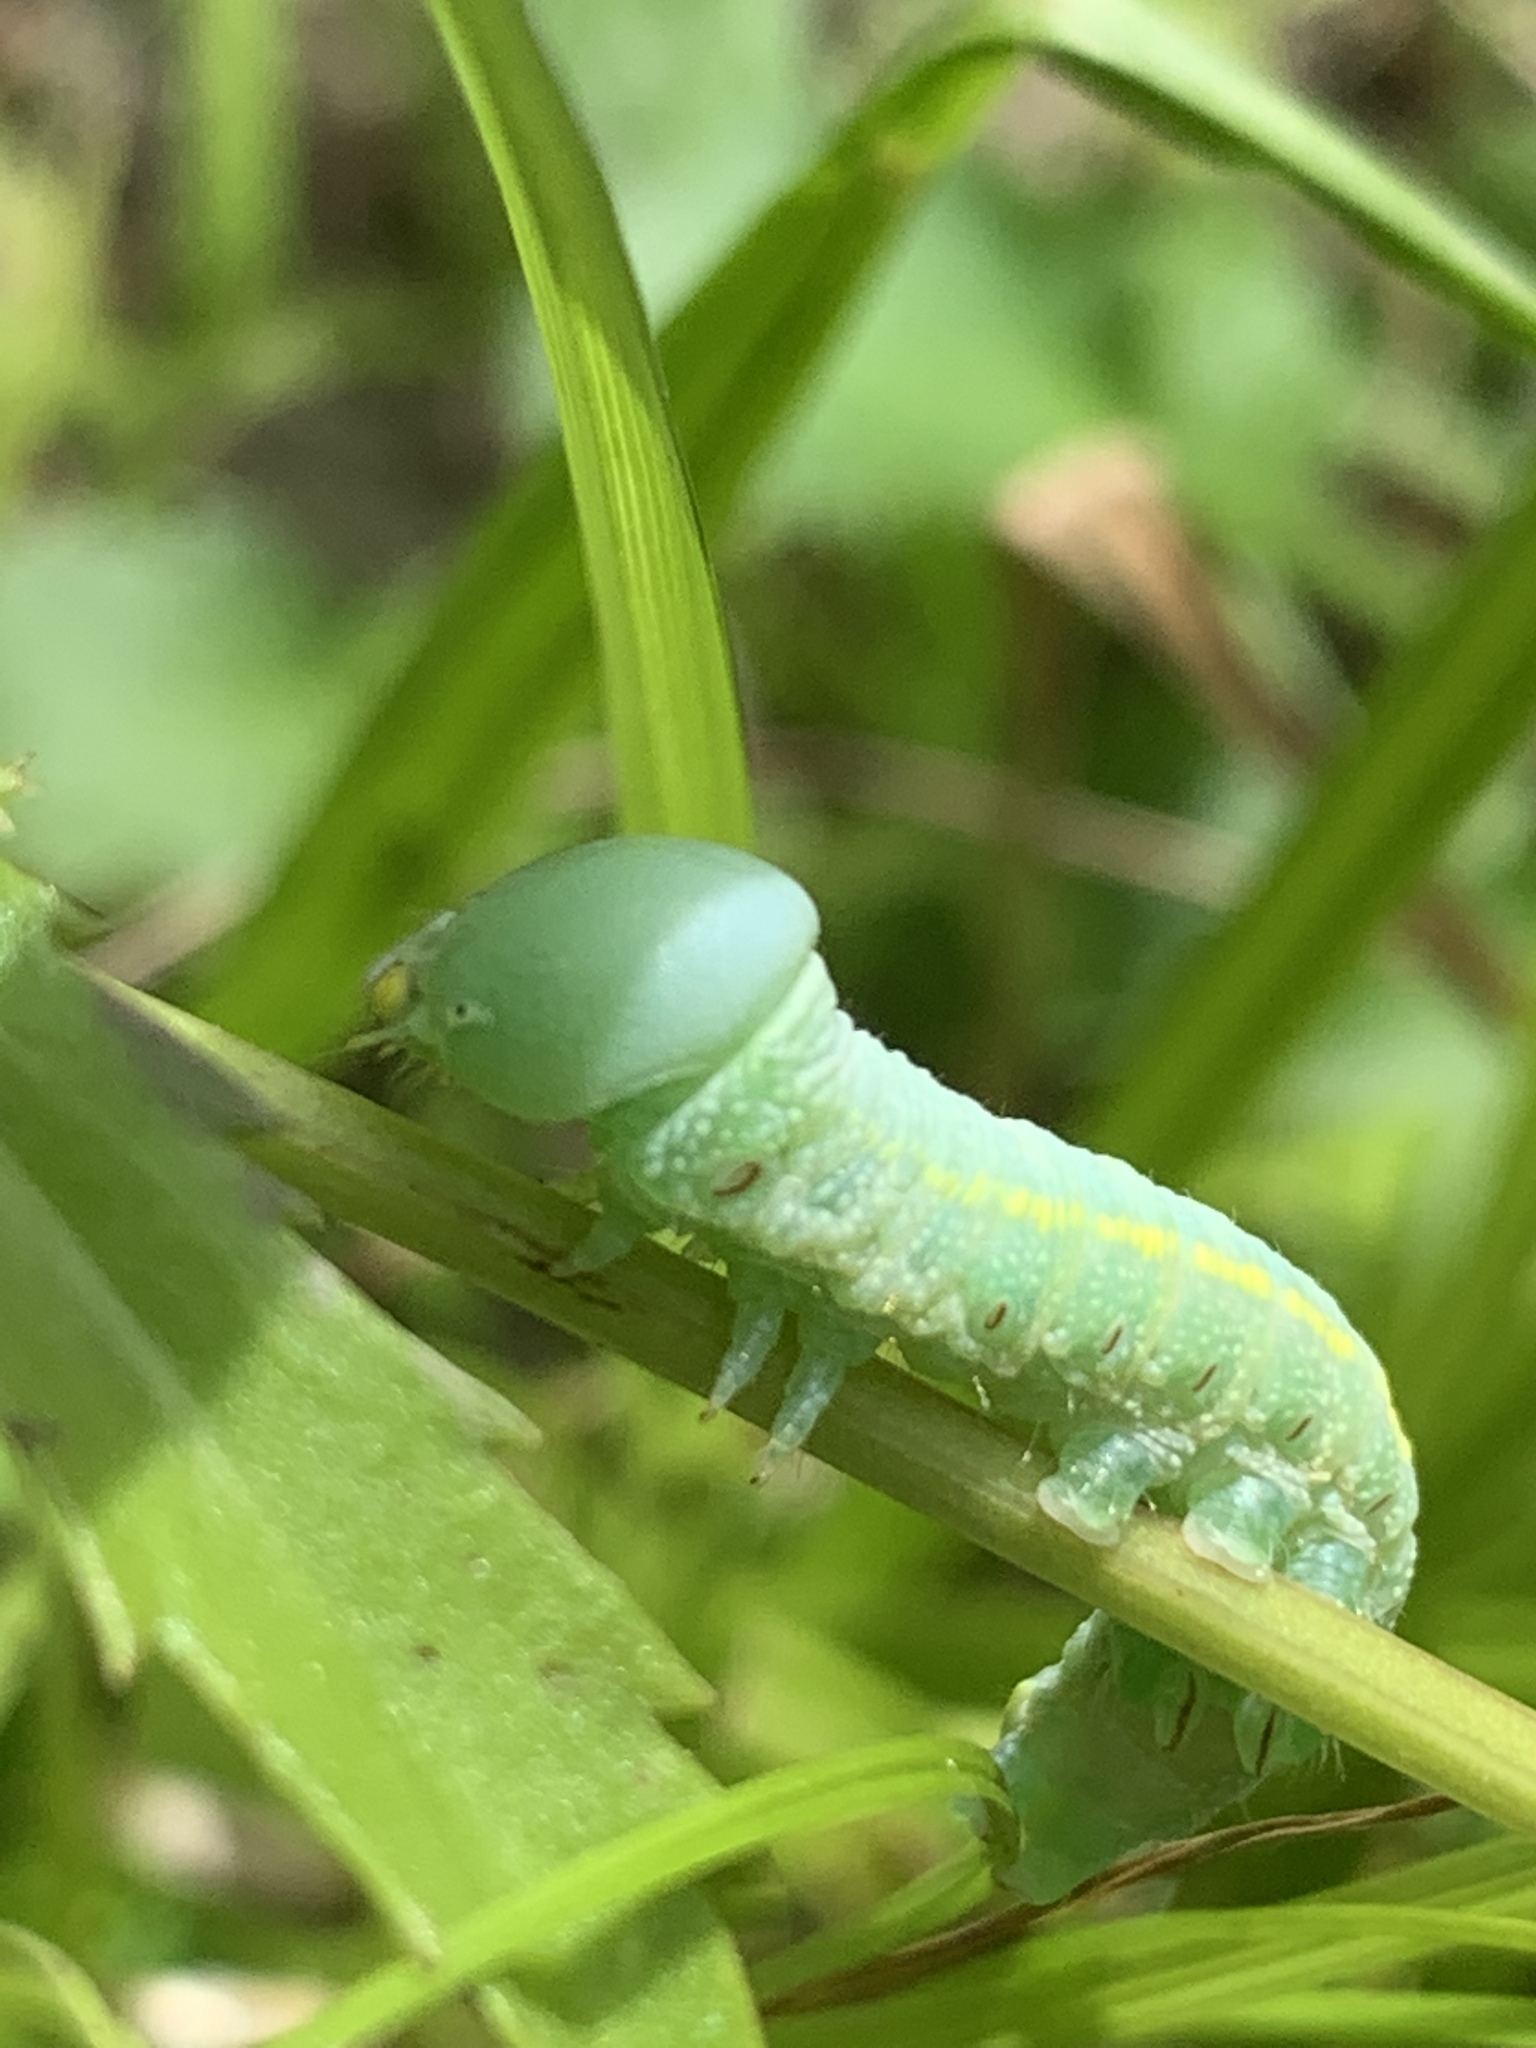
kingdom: Animalia
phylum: Arthropoda
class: Insecta
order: Lepidoptera
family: Notodontidae
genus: Nadata
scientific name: Nadata gibbosa
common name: White-dotted prominent
